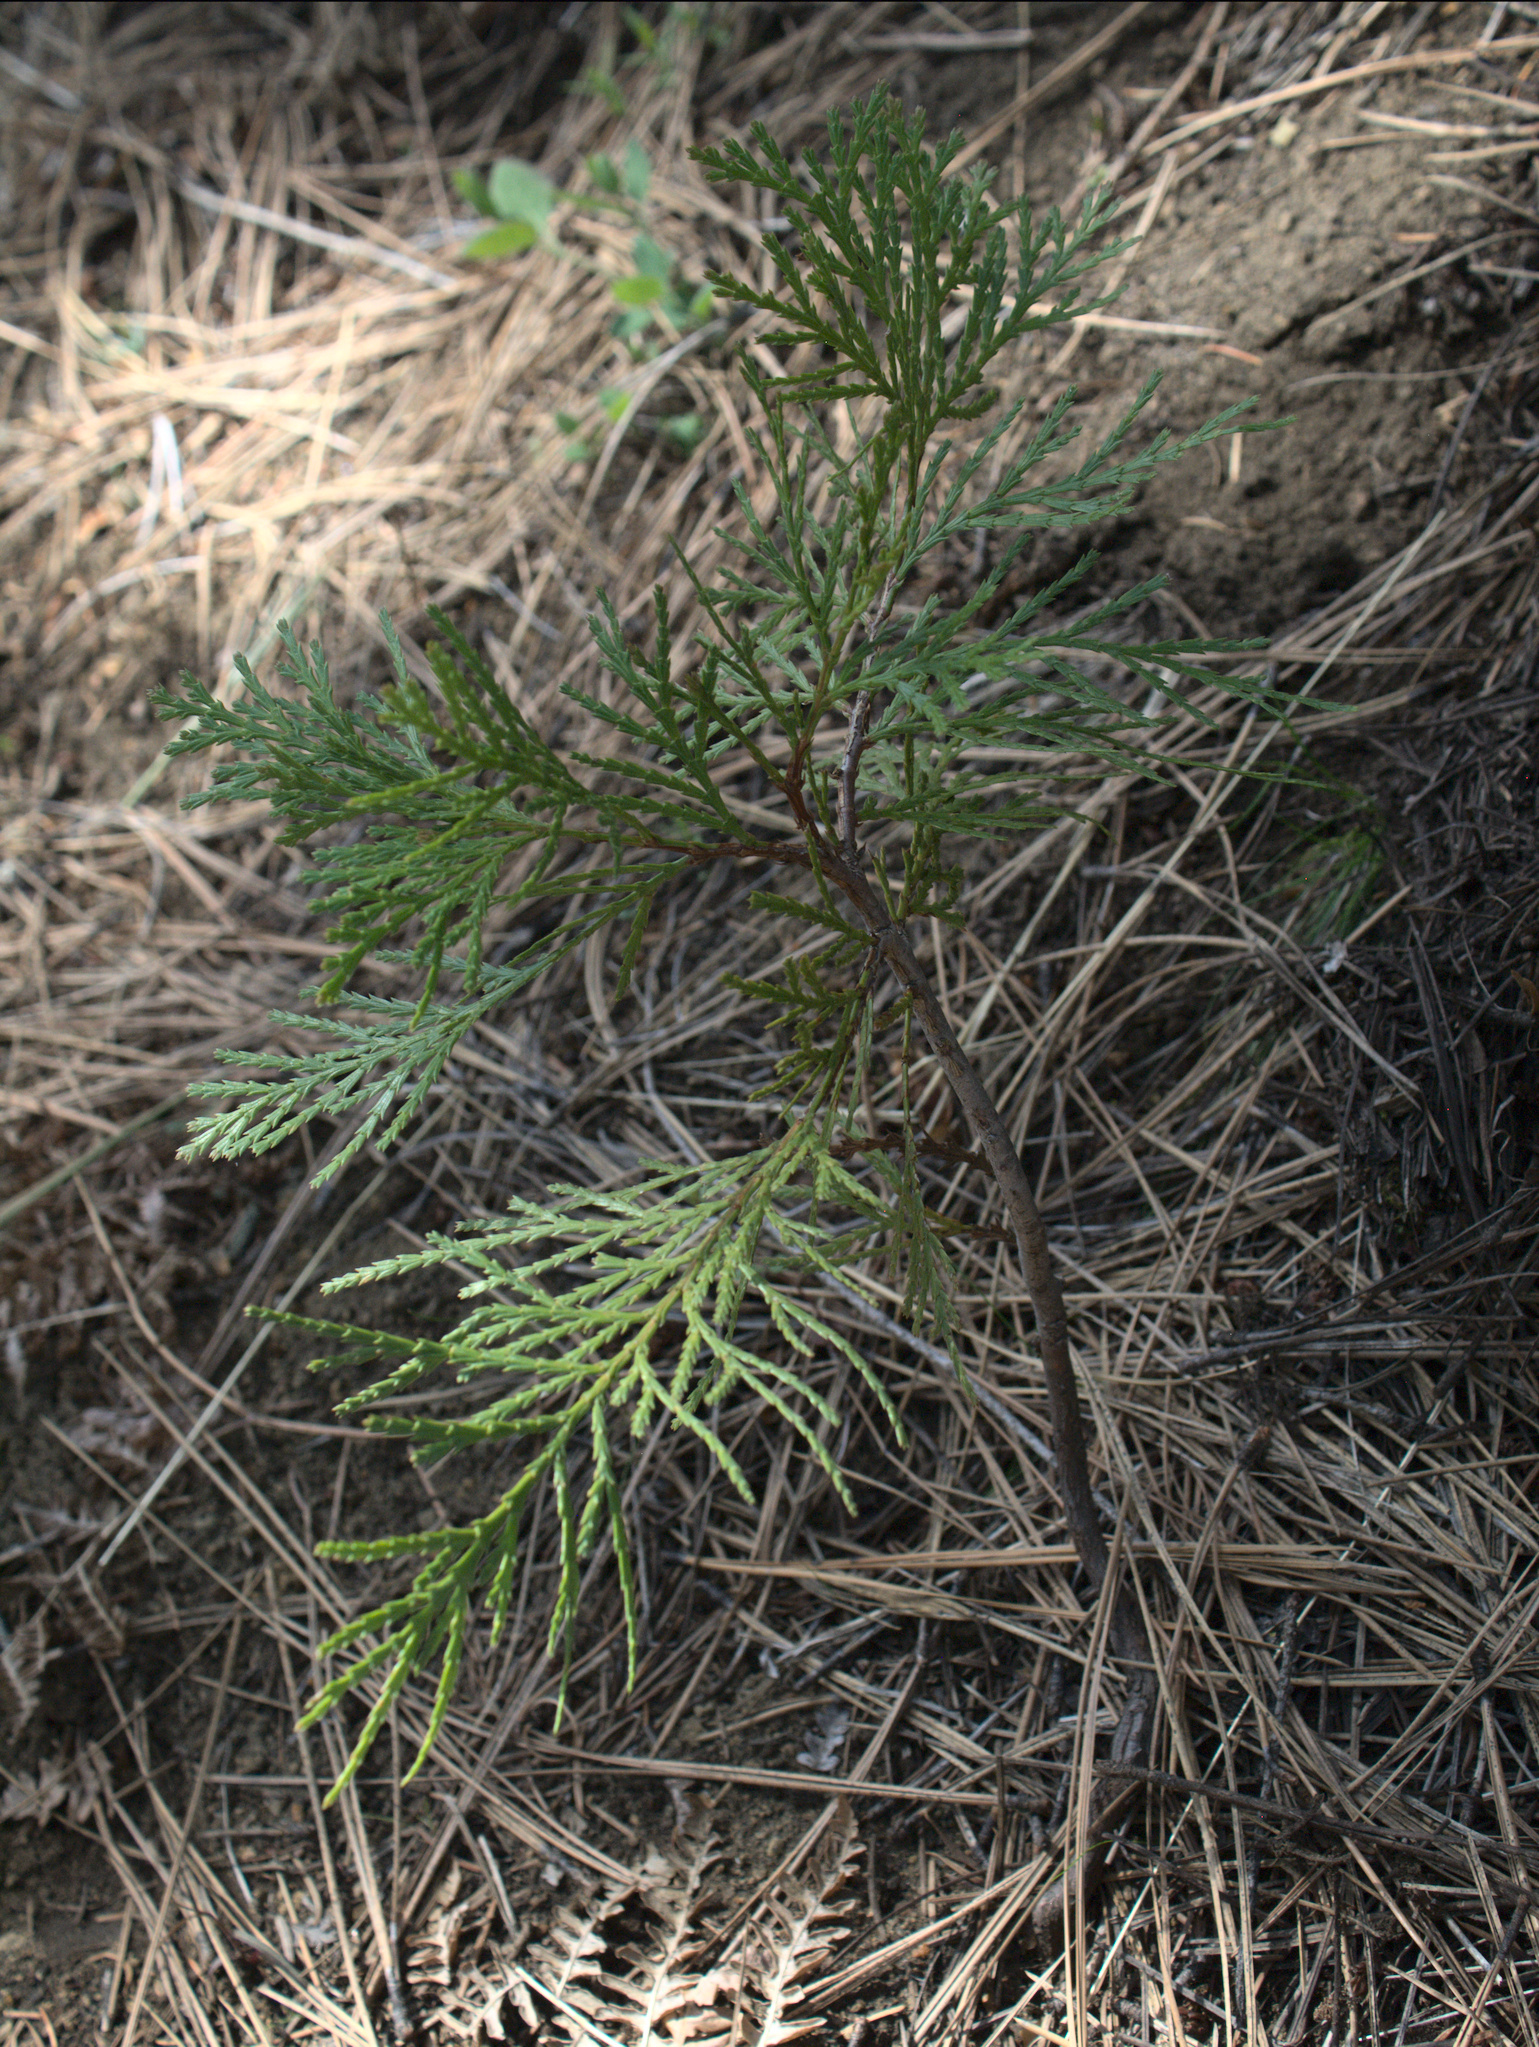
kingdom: Plantae
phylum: Tracheophyta
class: Pinopsida
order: Pinales
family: Cupressaceae
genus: Calocedrus
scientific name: Calocedrus decurrens
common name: Californian incense-cedar
